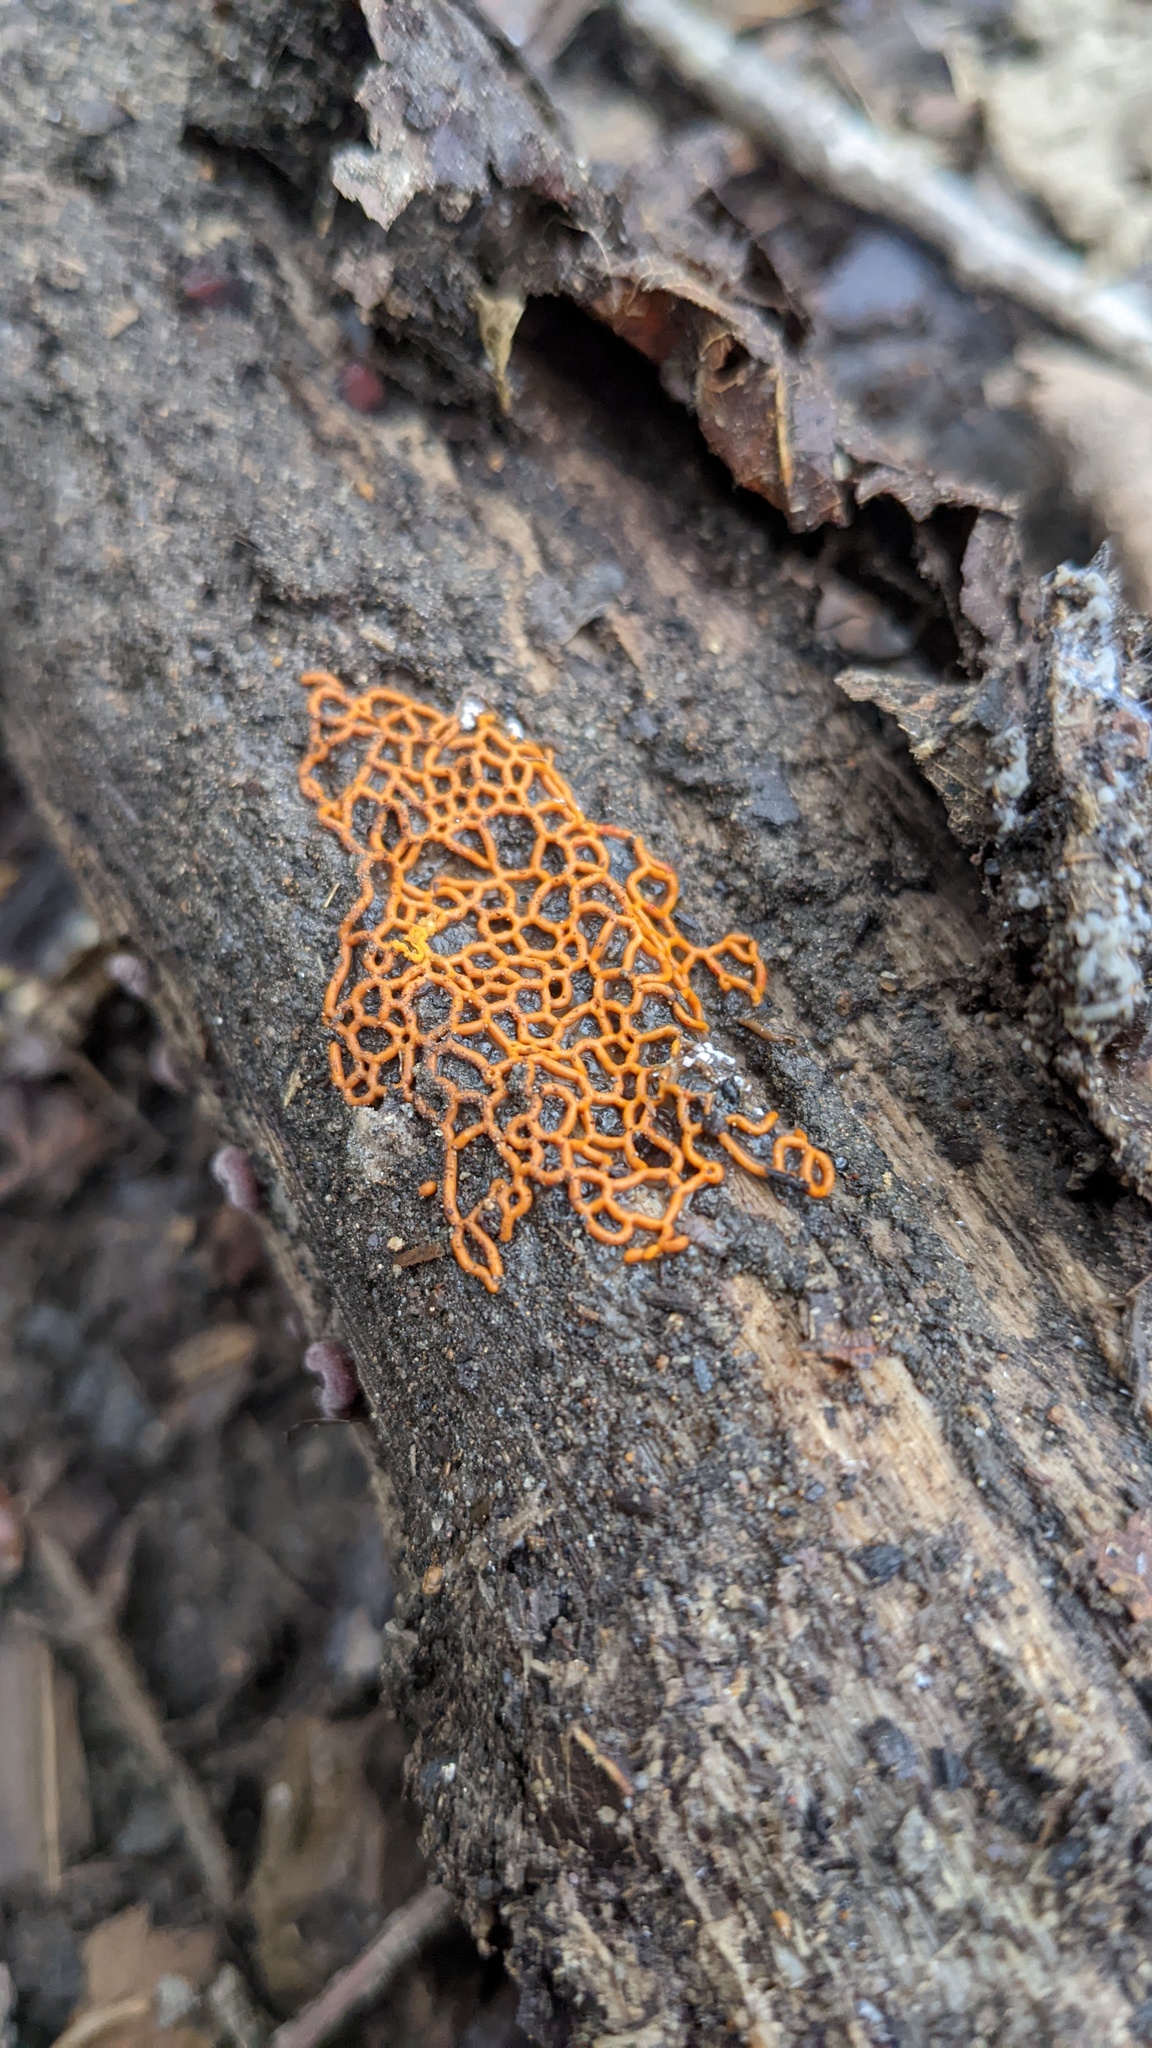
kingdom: Protozoa
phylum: Mycetozoa
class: Myxomycetes
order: Trichiales
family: Arcyriaceae
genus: Hemitrichia
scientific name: Hemitrichia serpula
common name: Pretzel slime mold
